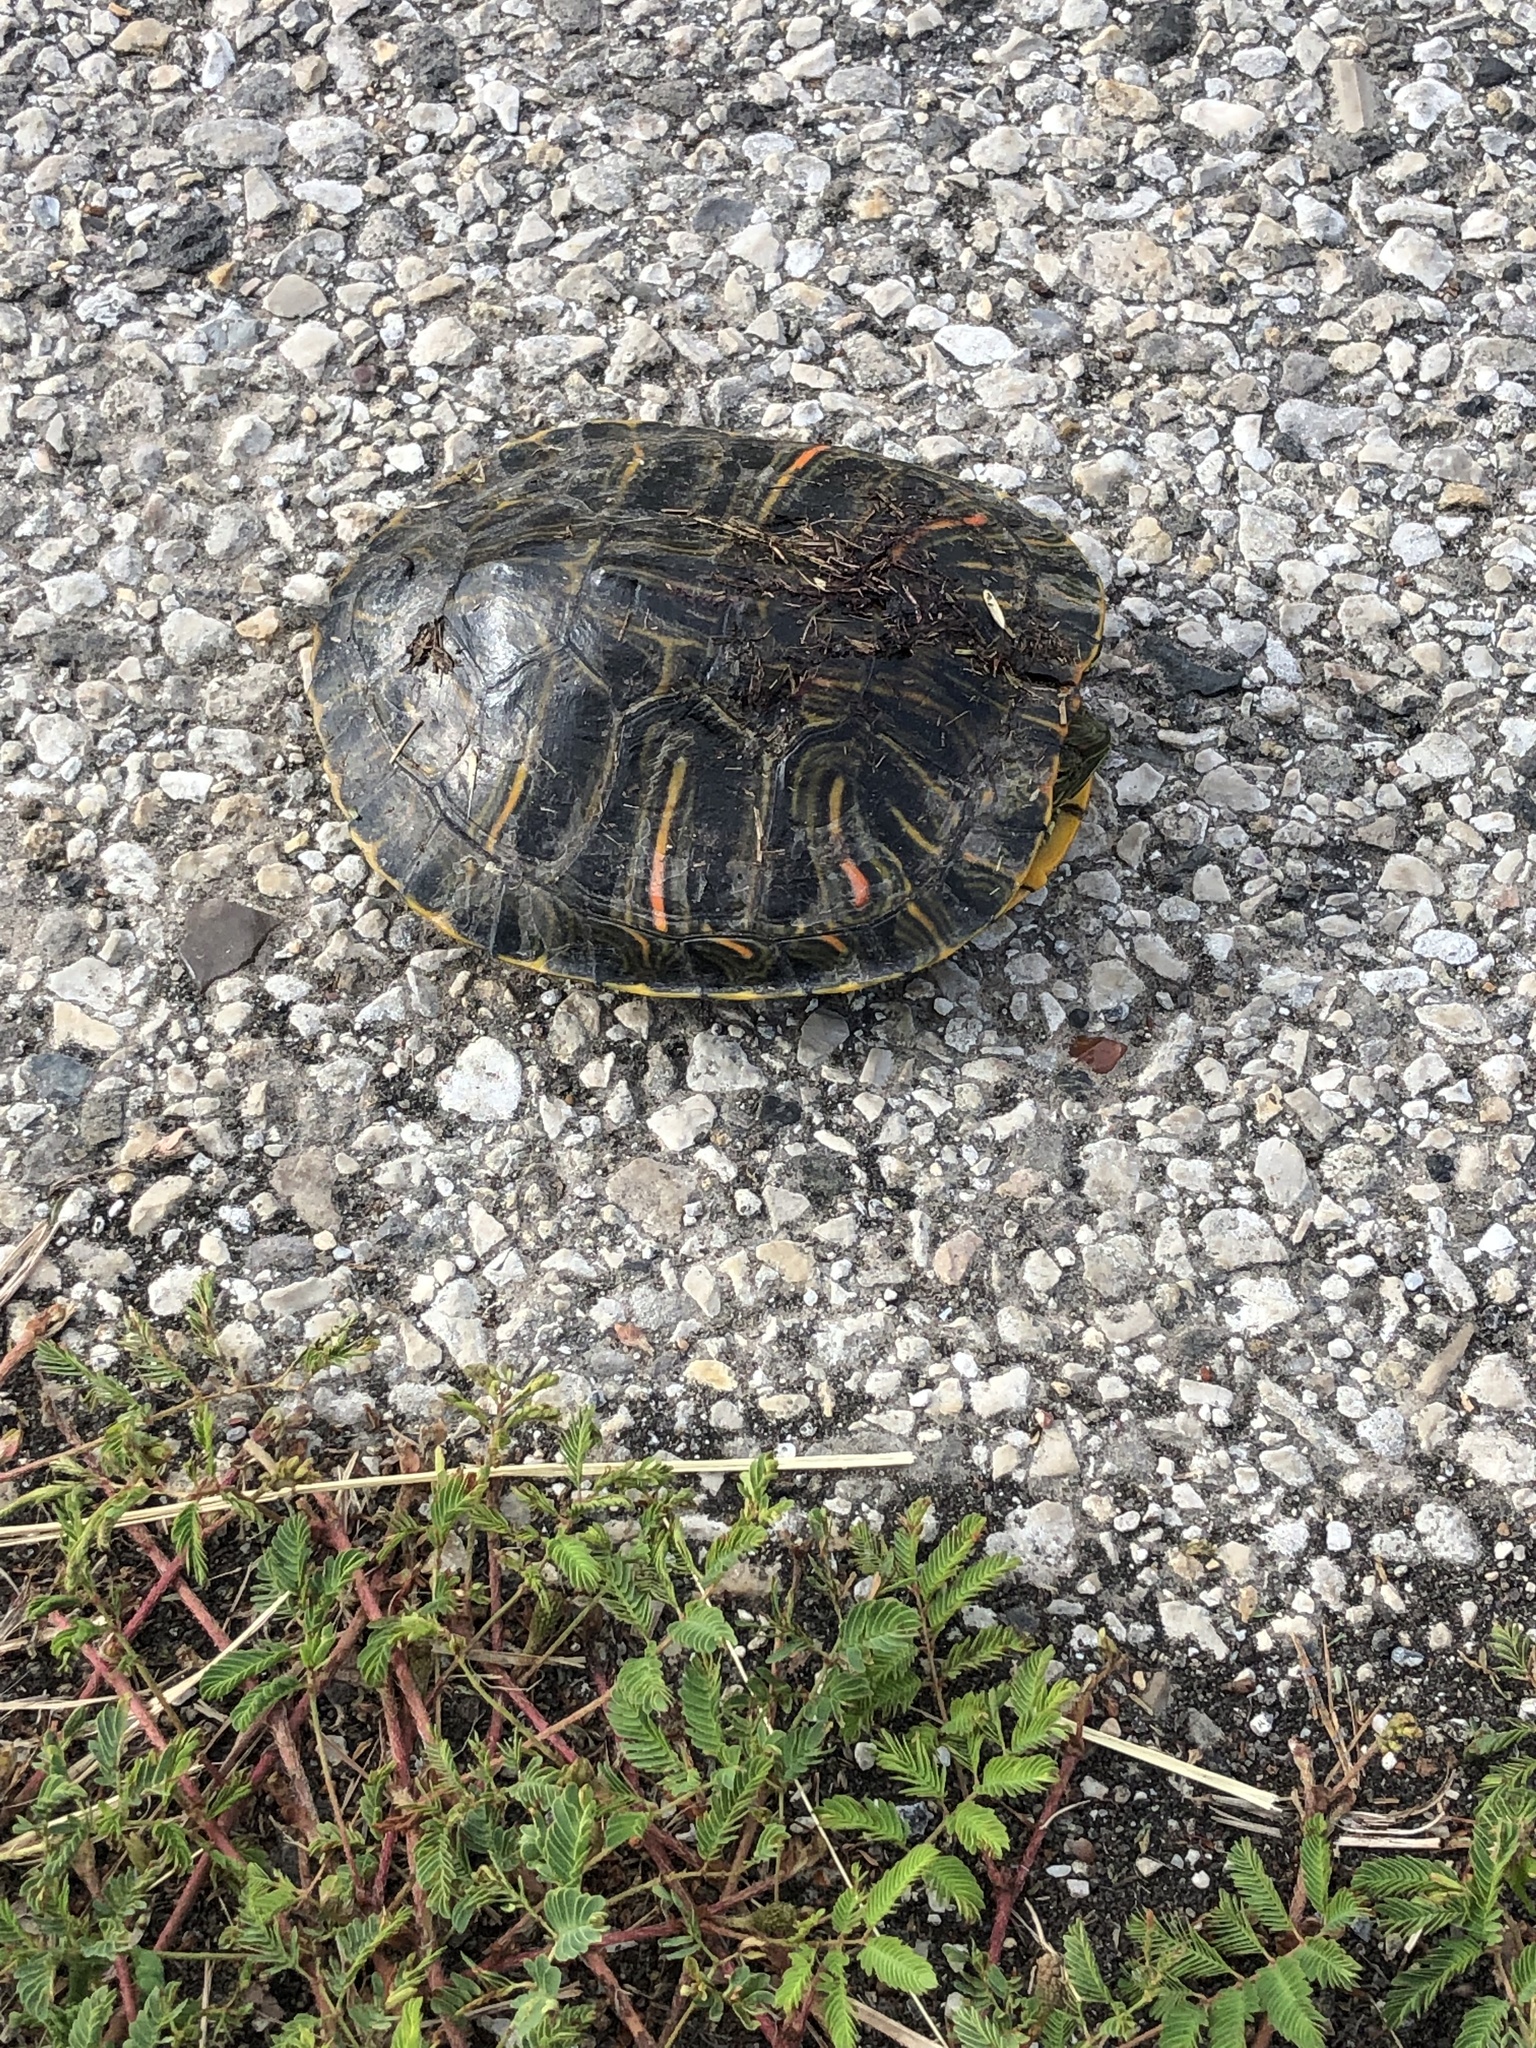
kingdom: Animalia
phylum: Chordata
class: Testudines
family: Emydidae
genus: Trachemys
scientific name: Trachemys scripta
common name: Slider
